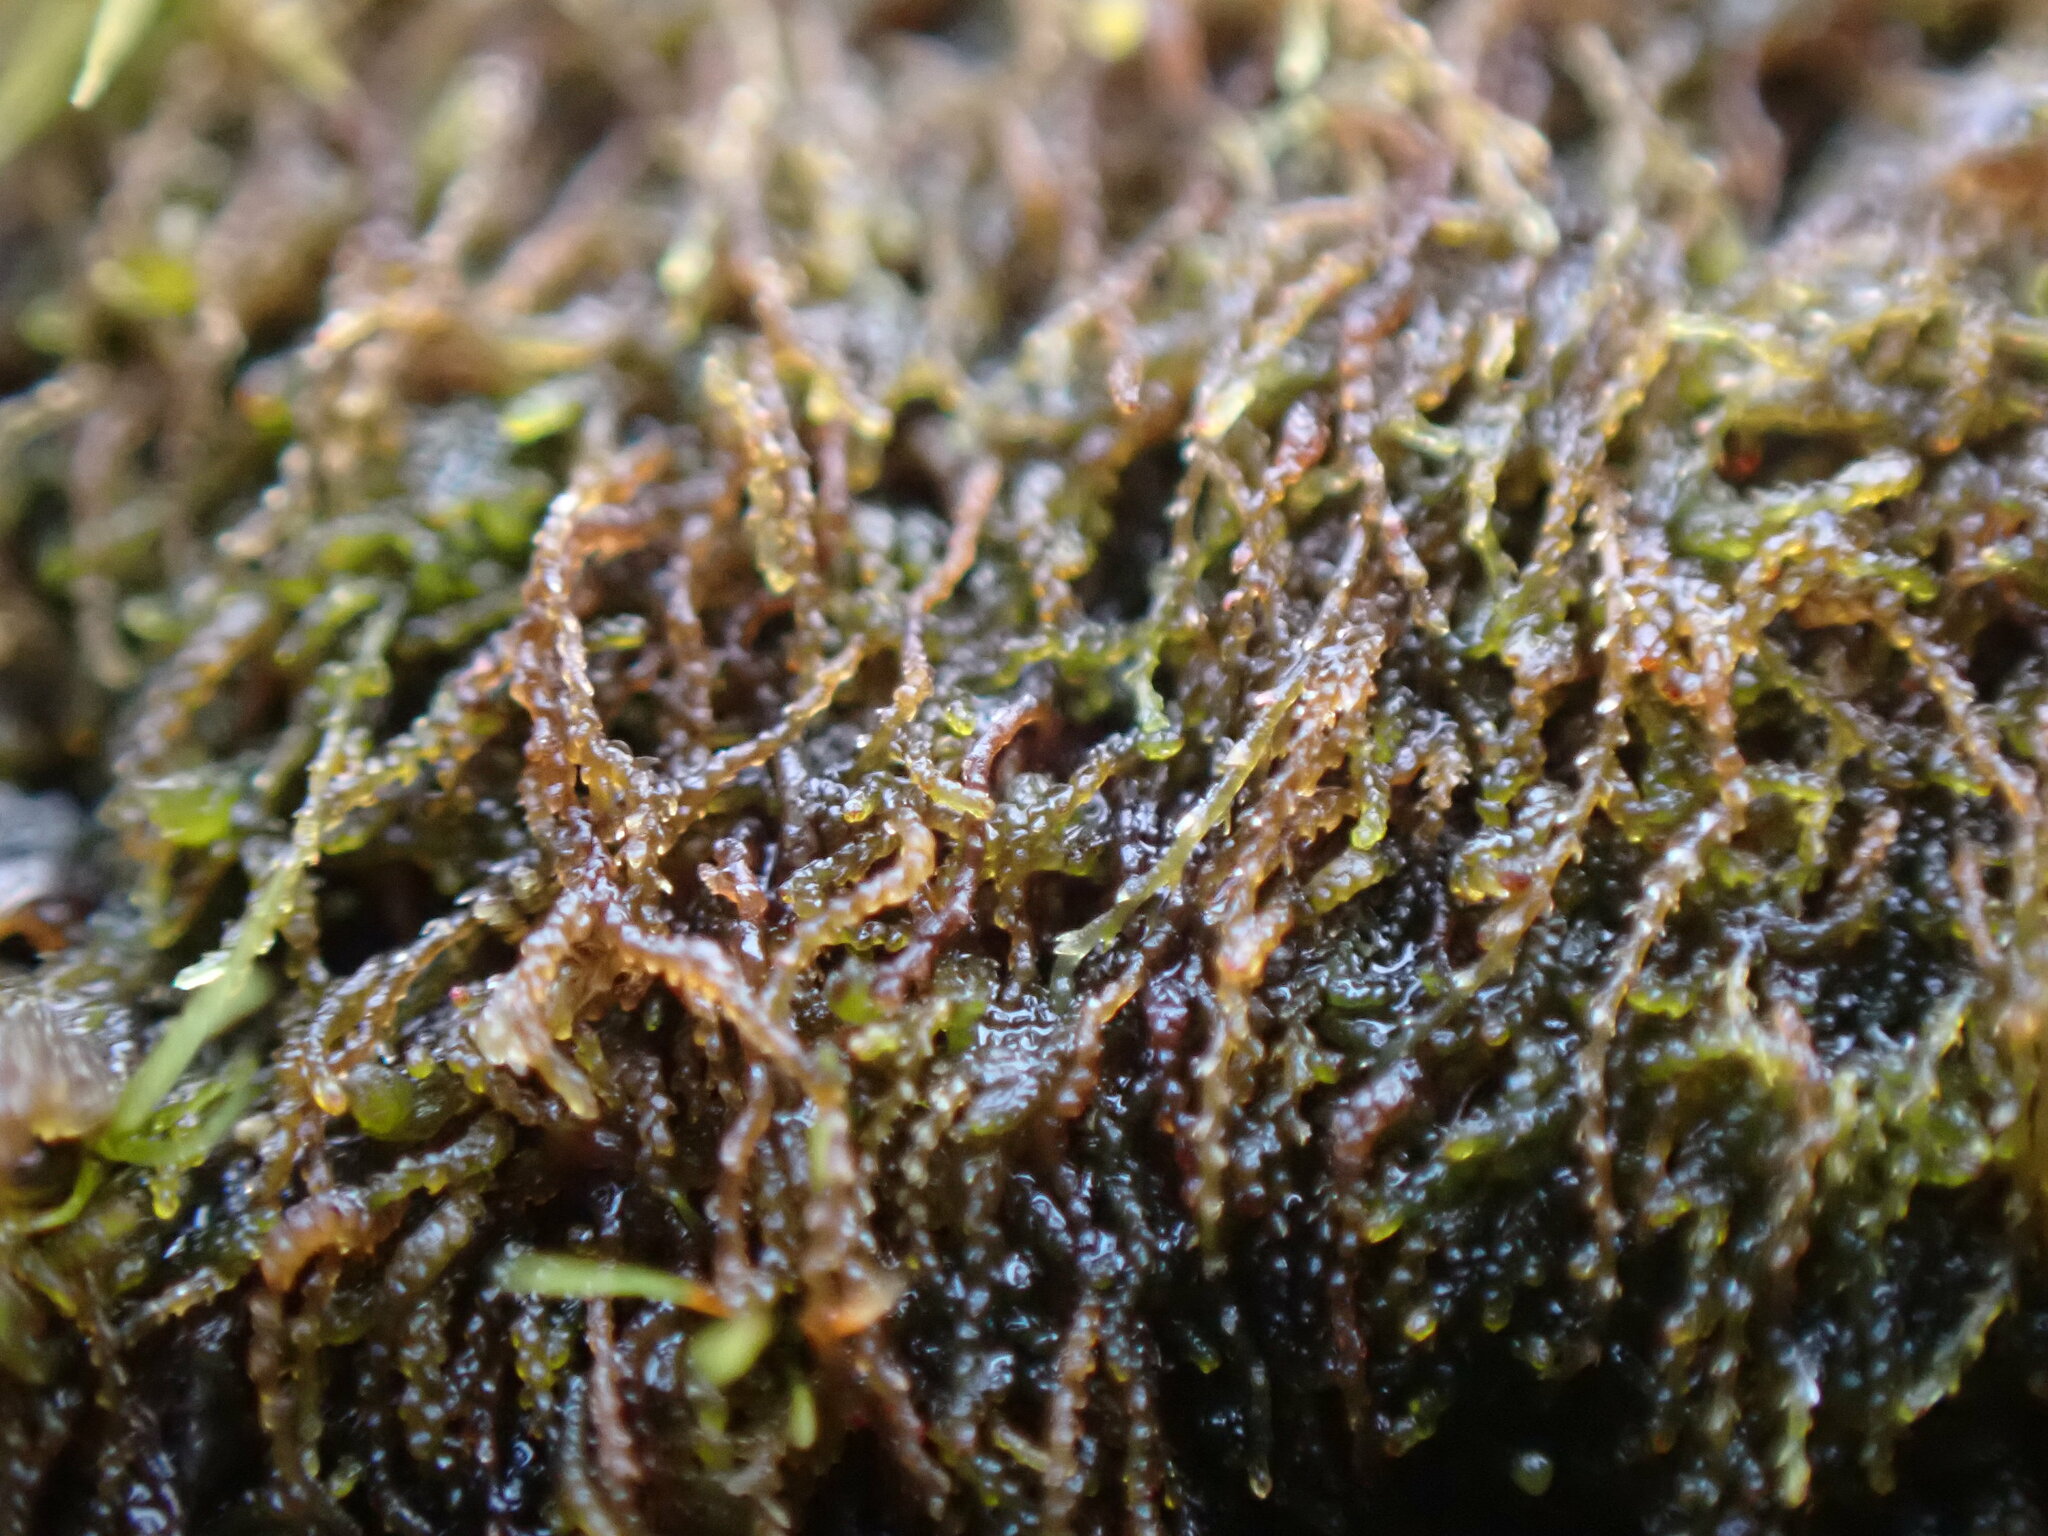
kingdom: Plantae
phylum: Marchantiophyta
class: Jungermanniopsida
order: Jungermanniales
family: Cephaloziellaceae
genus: Cephaloziella
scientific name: Cephaloziella divaricata
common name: Spreading threadwort
